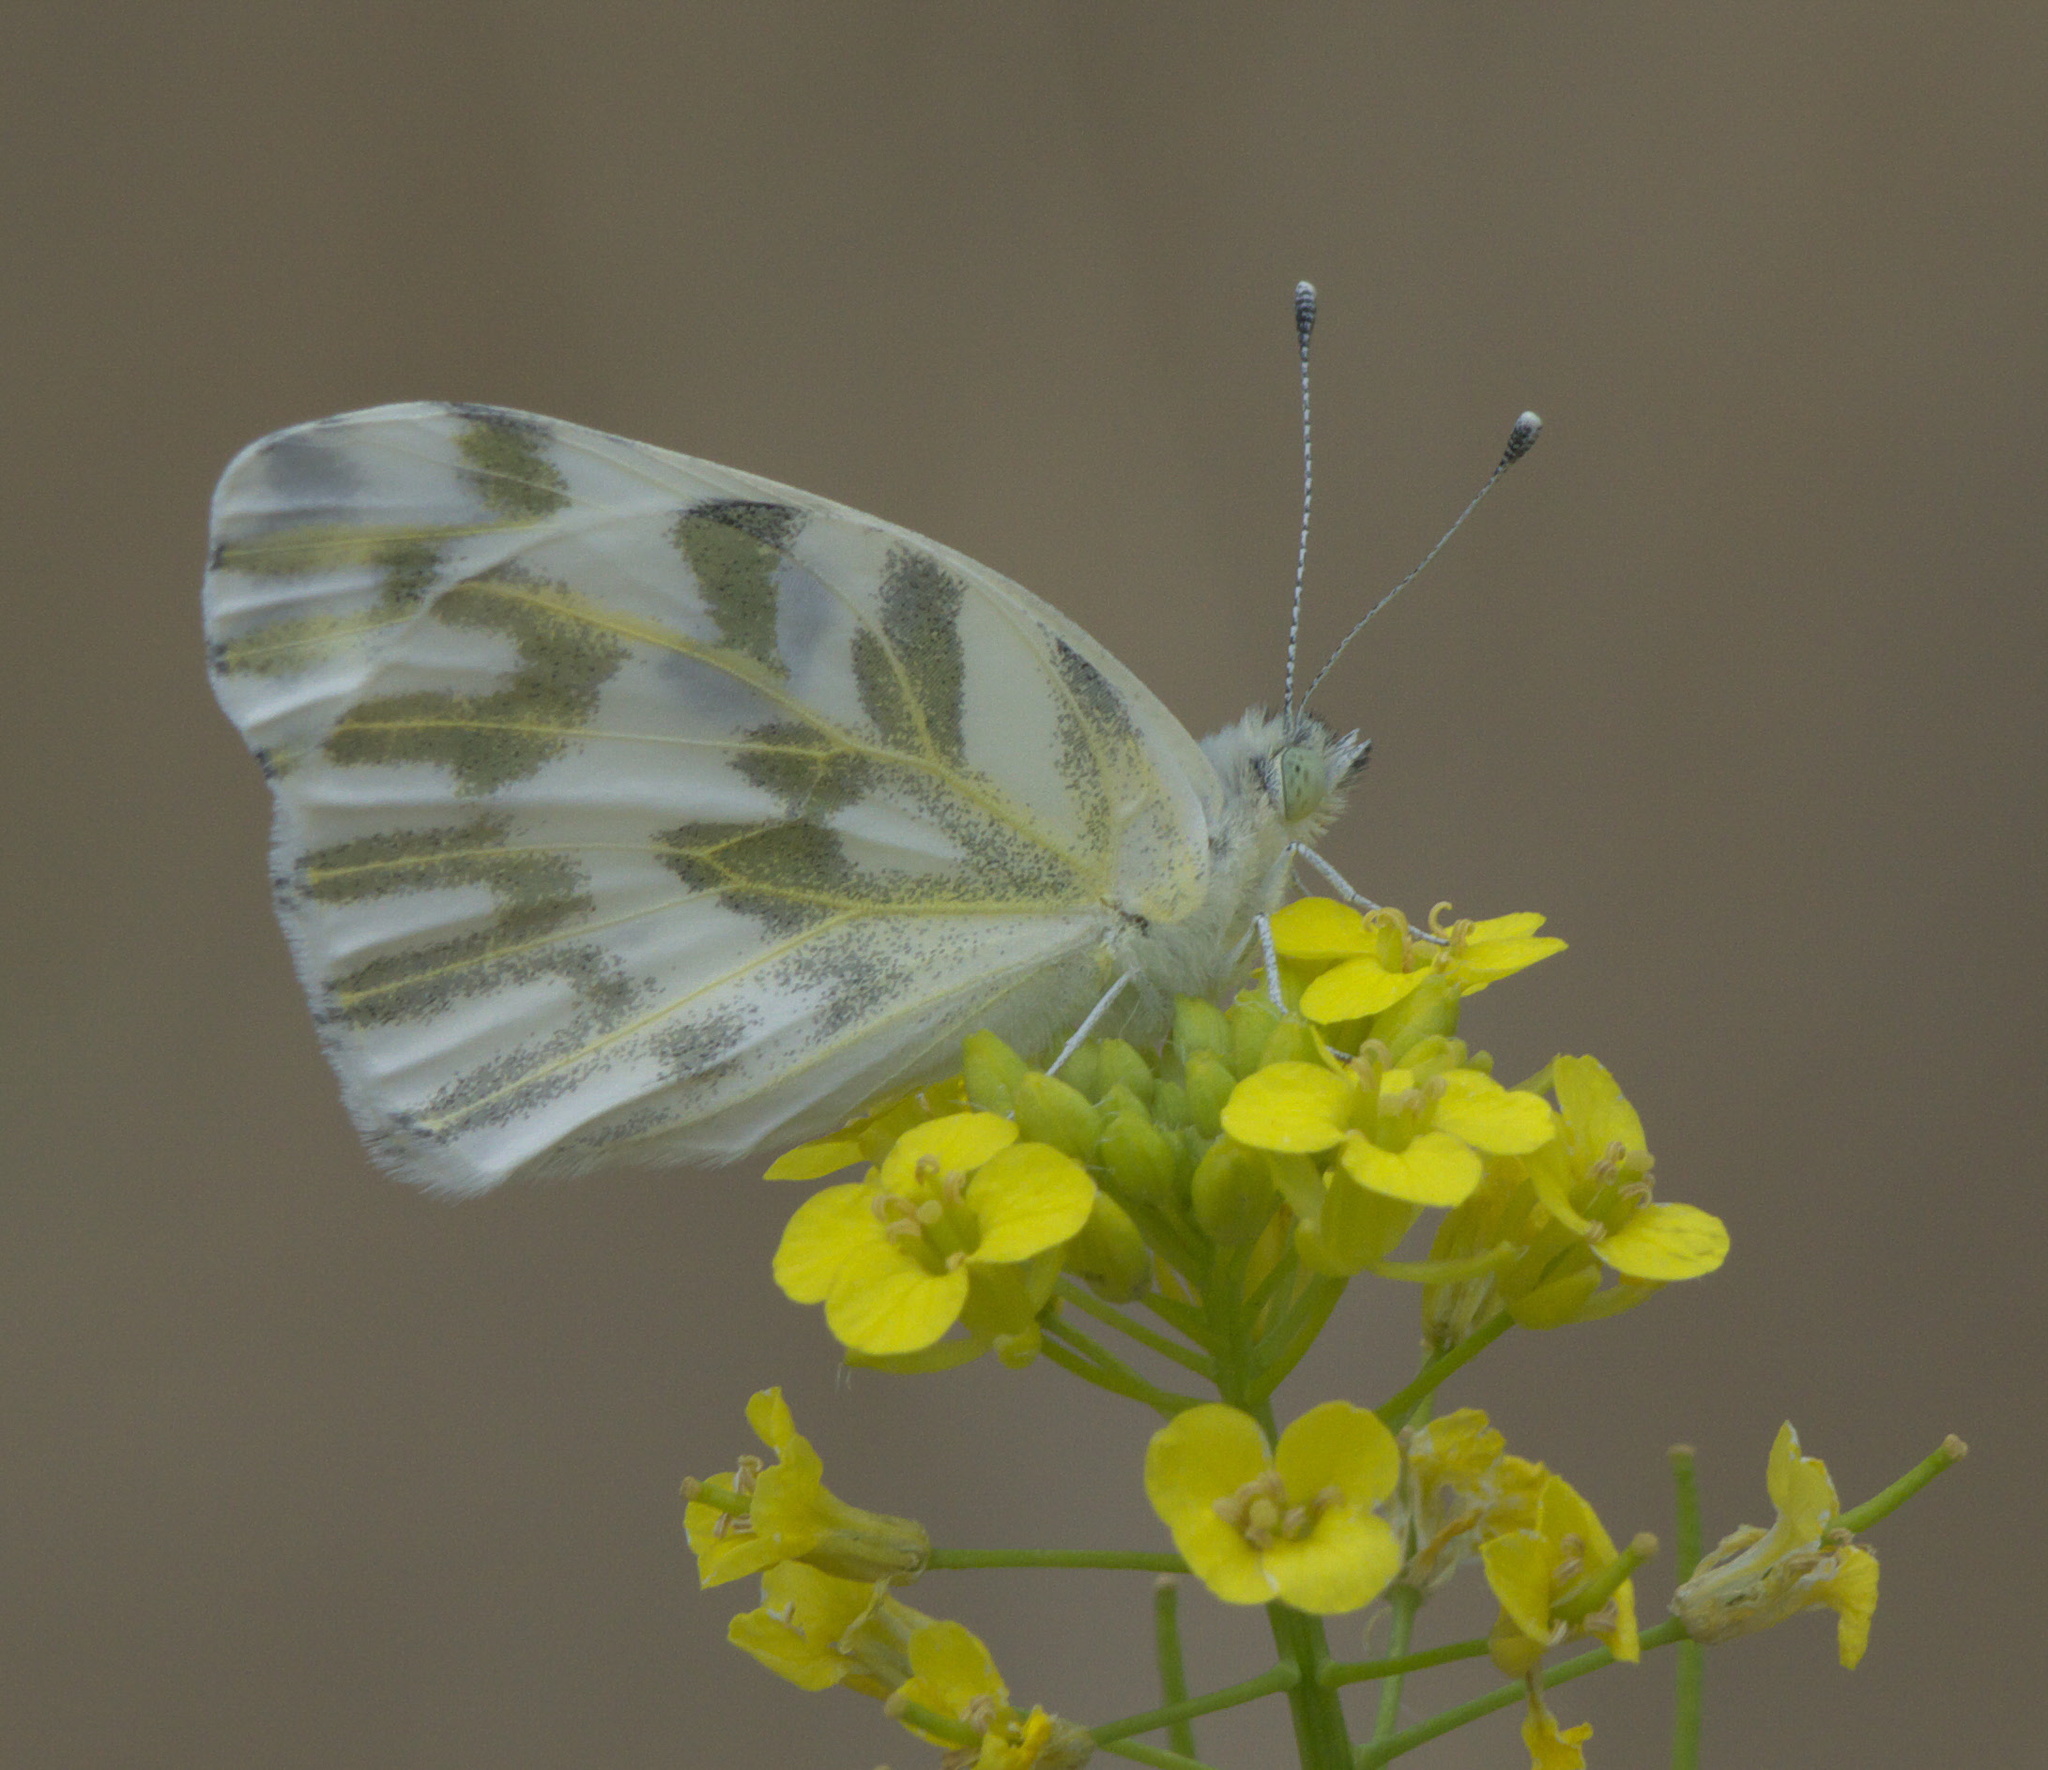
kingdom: Animalia
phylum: Arthropoda
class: Insecta
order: Lepidoptera
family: Pieridae
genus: Pontia
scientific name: Pontia beckerii
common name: Becker's white
